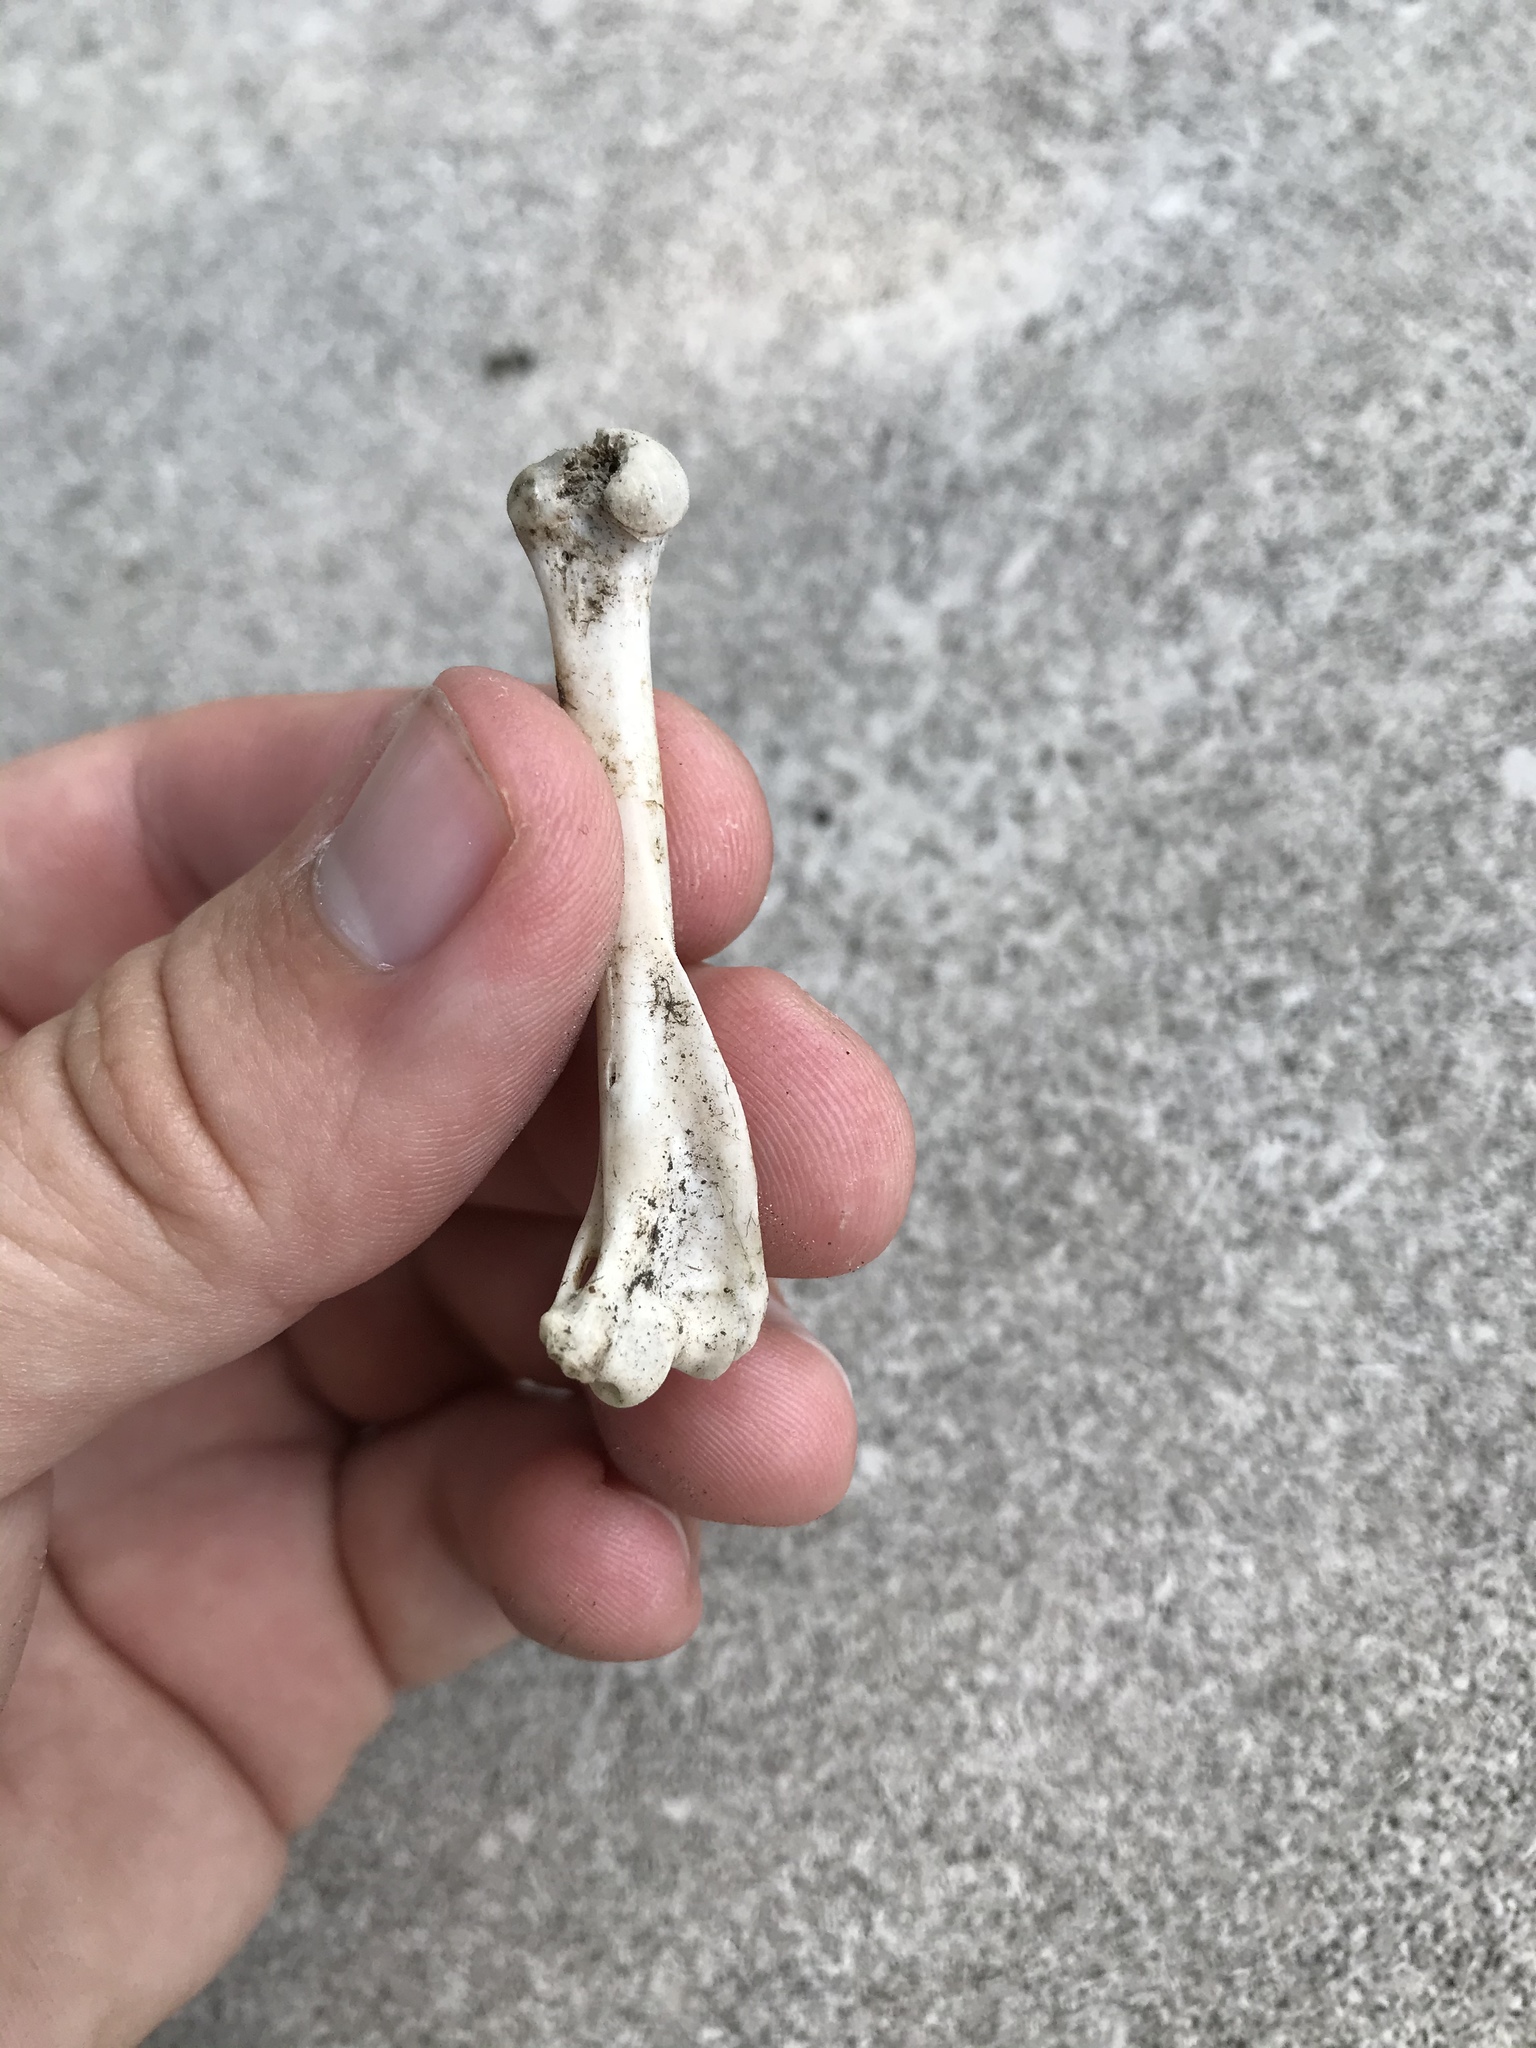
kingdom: Animalia
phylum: Chordata
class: Mammalia
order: Rodentia
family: Sciuridae
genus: Sciurus
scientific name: Sciurus niger
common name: Fox squirrel
